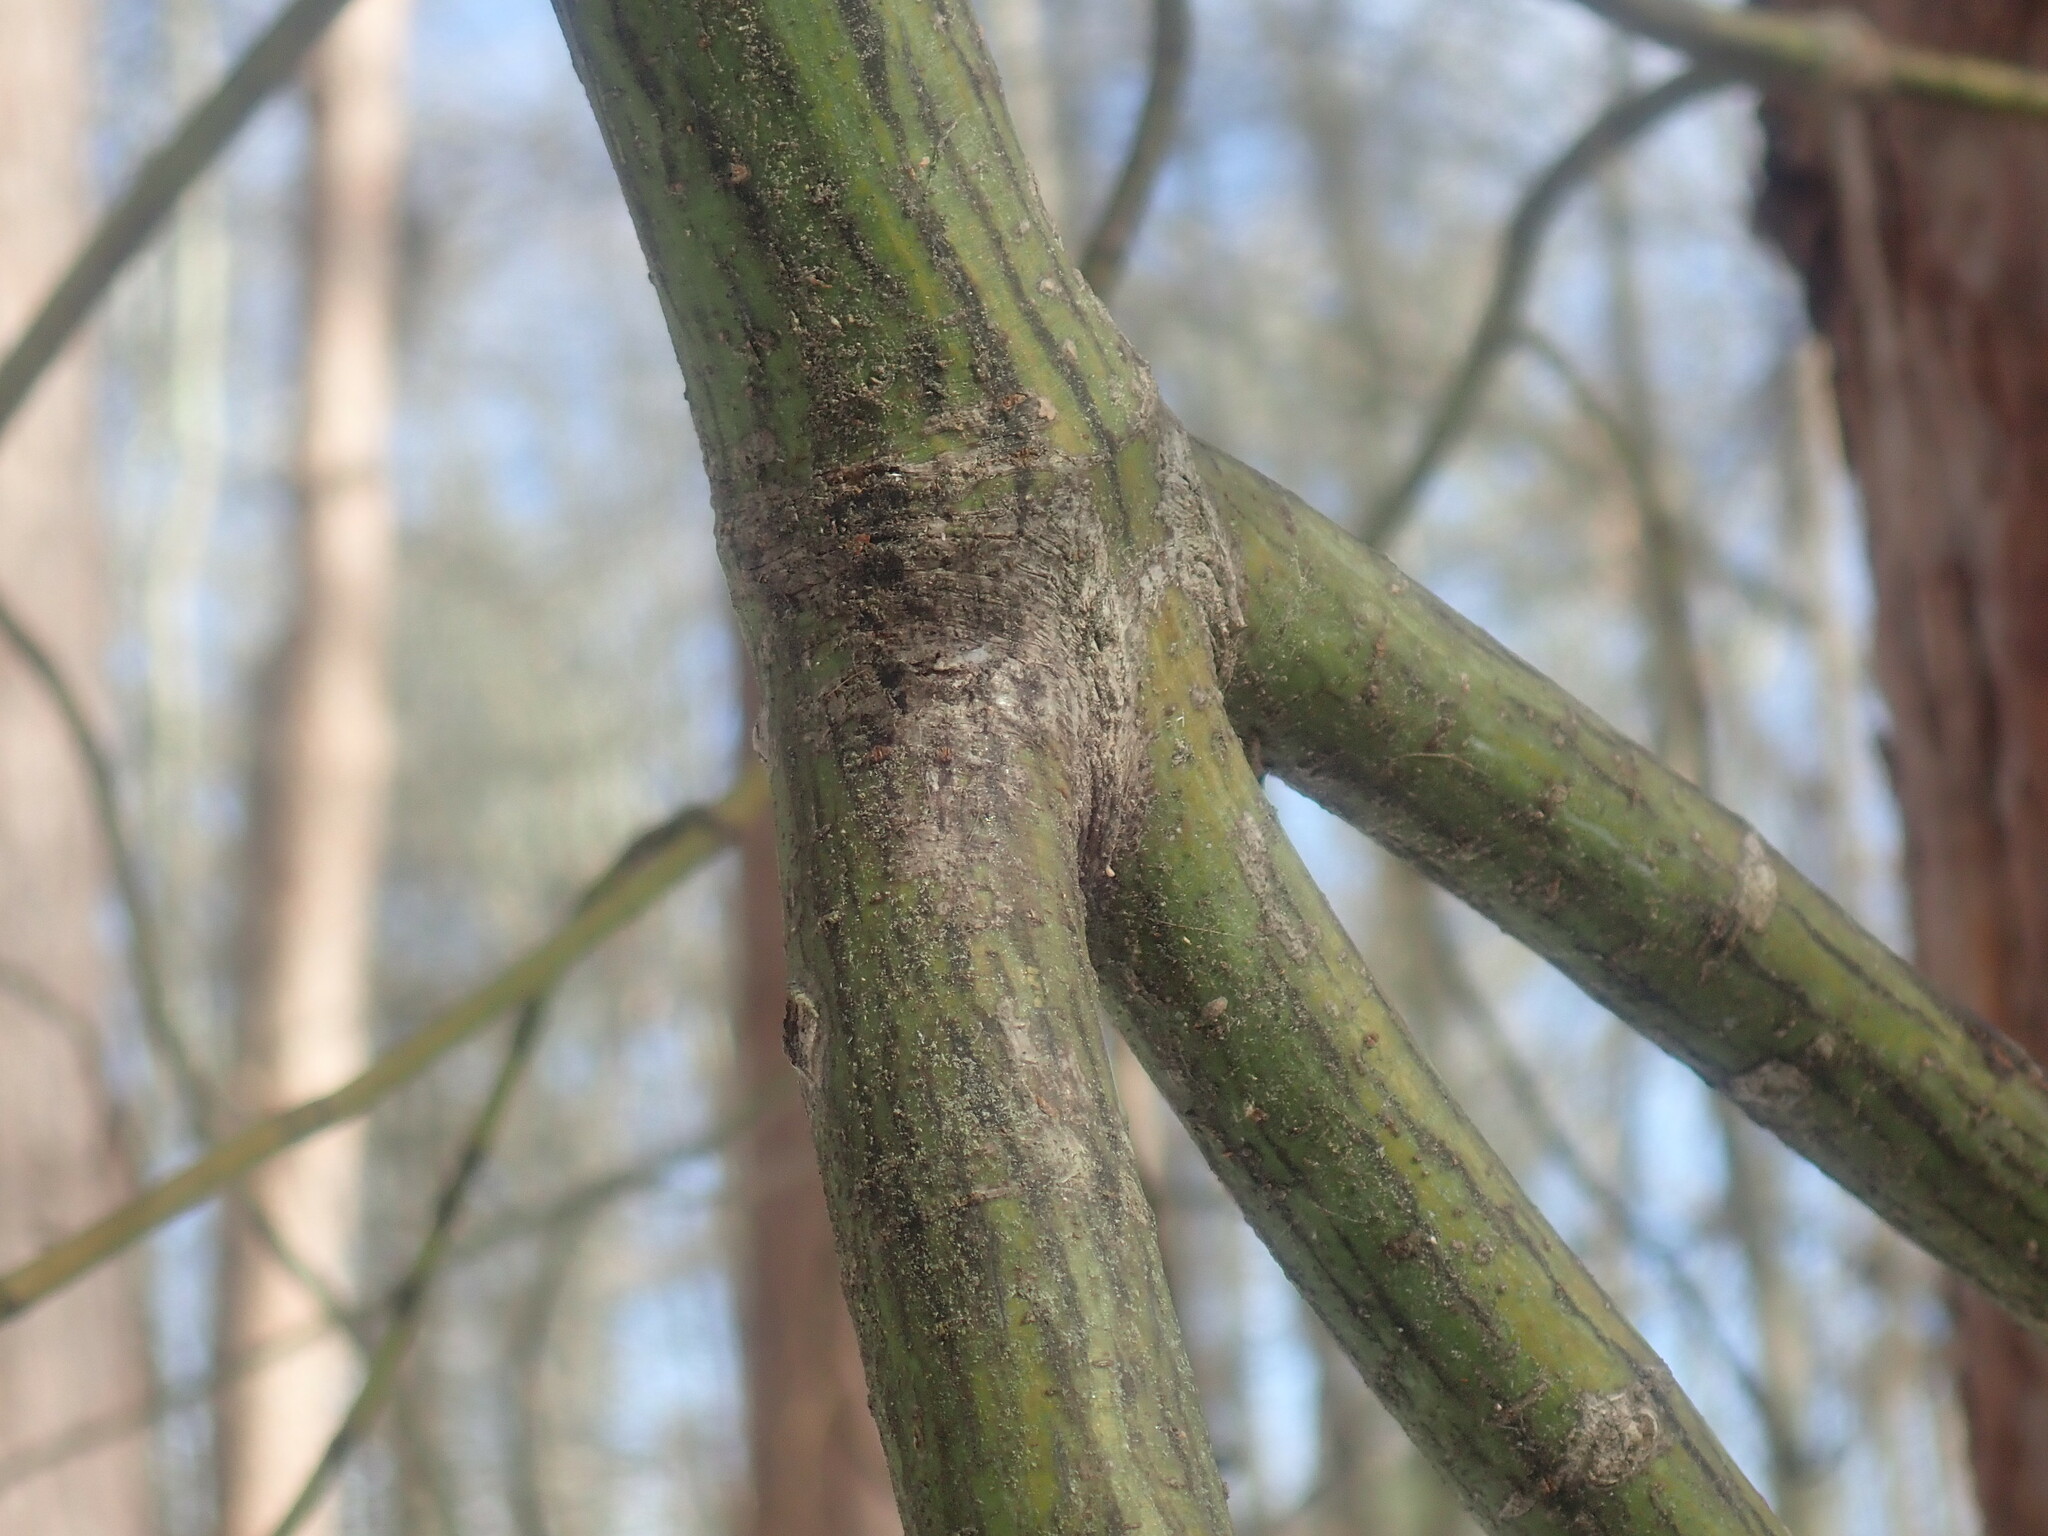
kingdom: Plantae
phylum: Tracheophyta
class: Magnoliopsida
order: Sapindales
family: Sapindaceae
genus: Acer
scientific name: Acer pensylvanicum
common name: Moosewood
